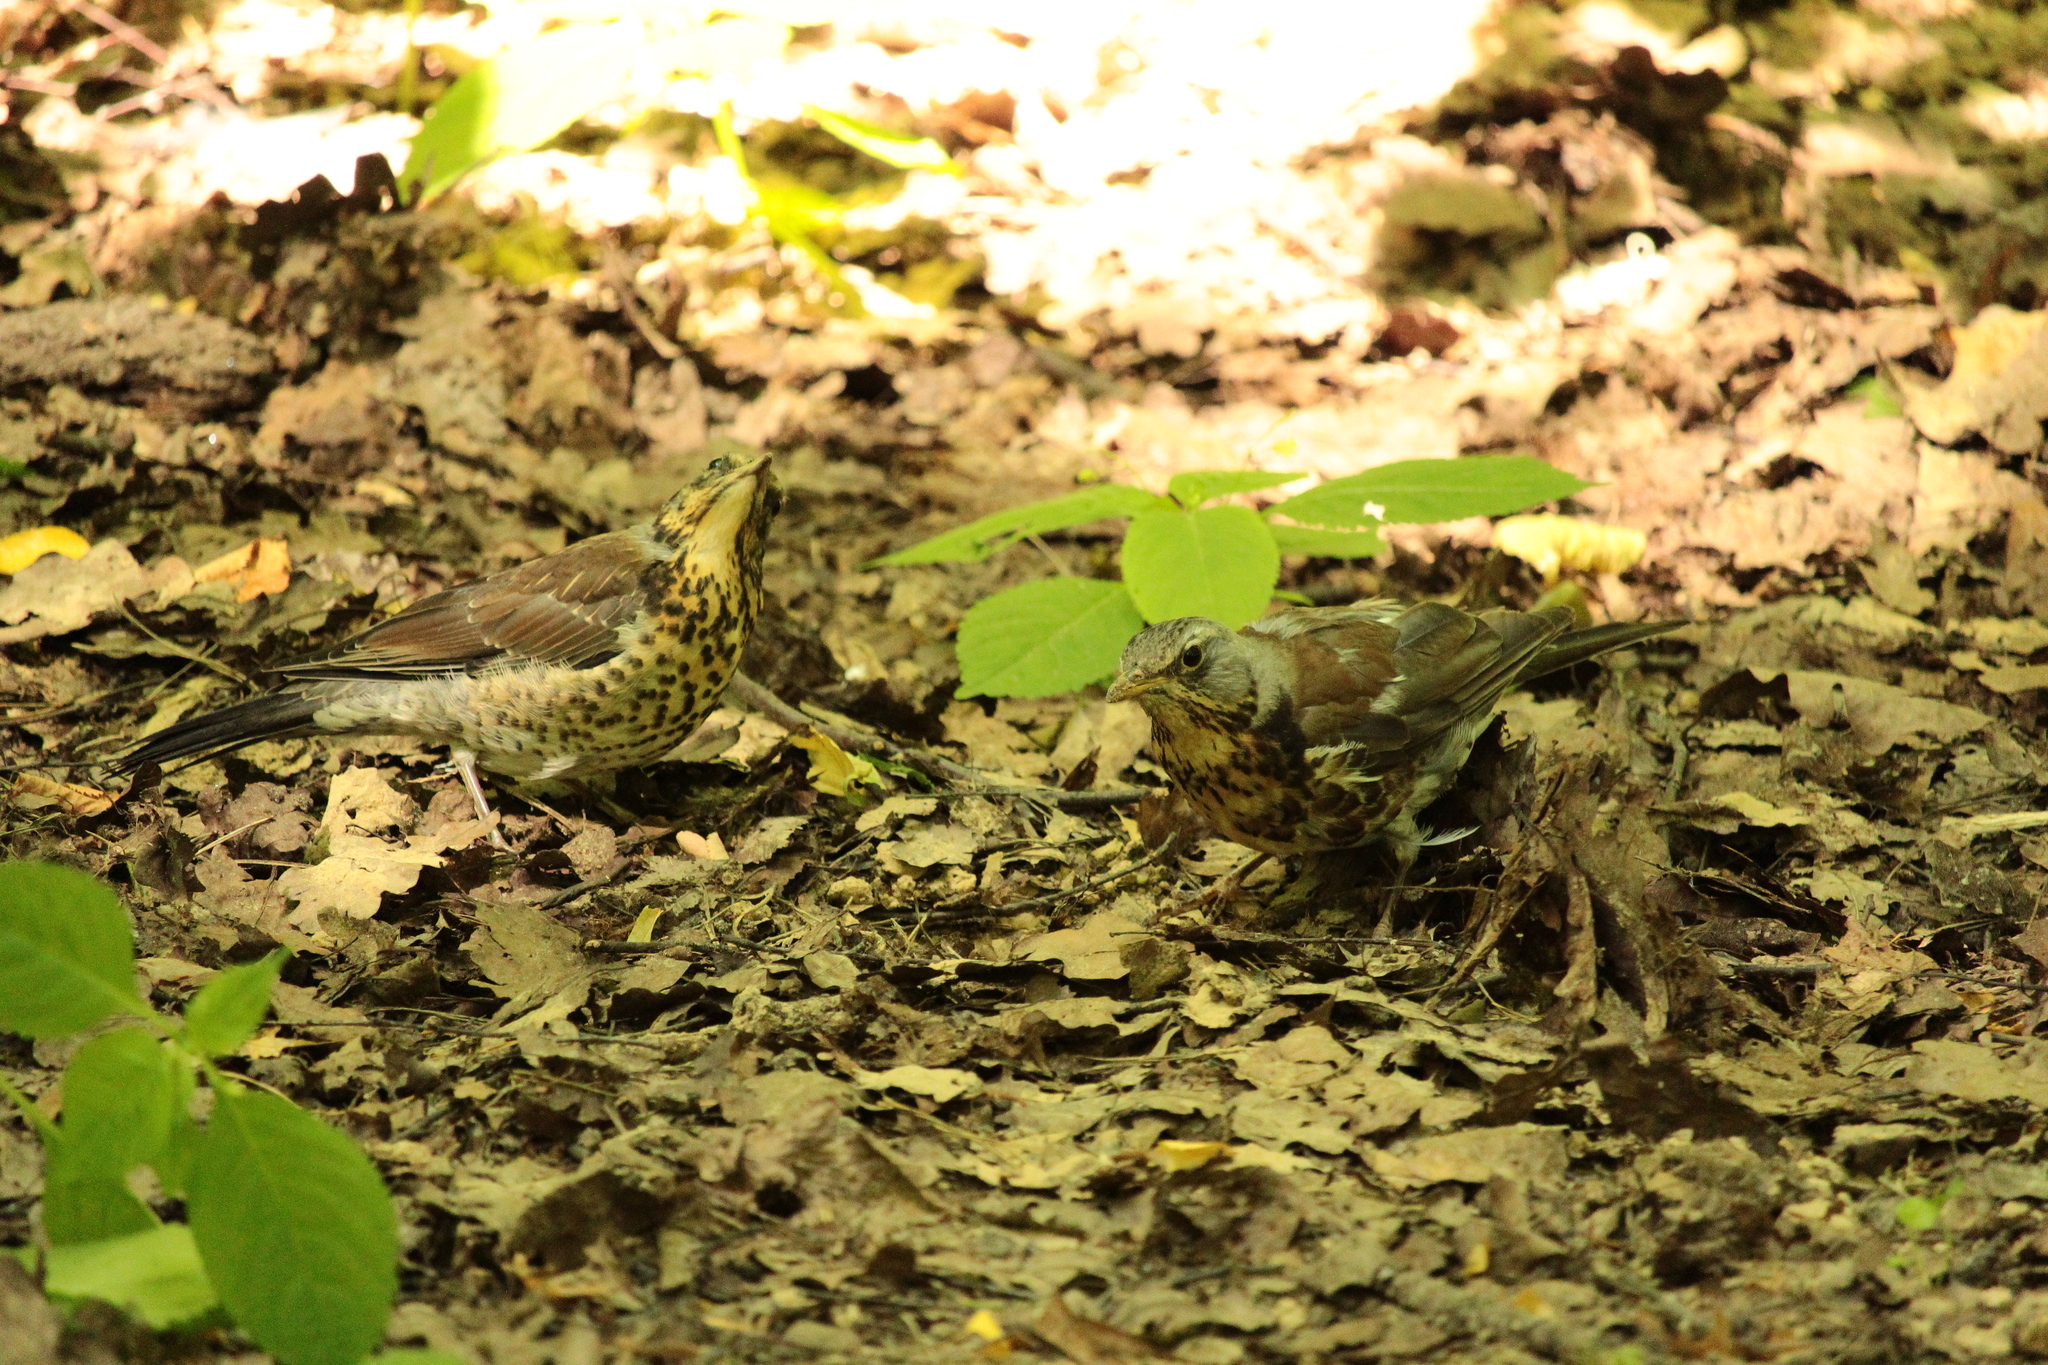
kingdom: Animalia
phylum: Chordata
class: Aves
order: Passeriformes
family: Turdidae
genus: Turdus
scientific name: Turdus pilaris
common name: Fieldfare
